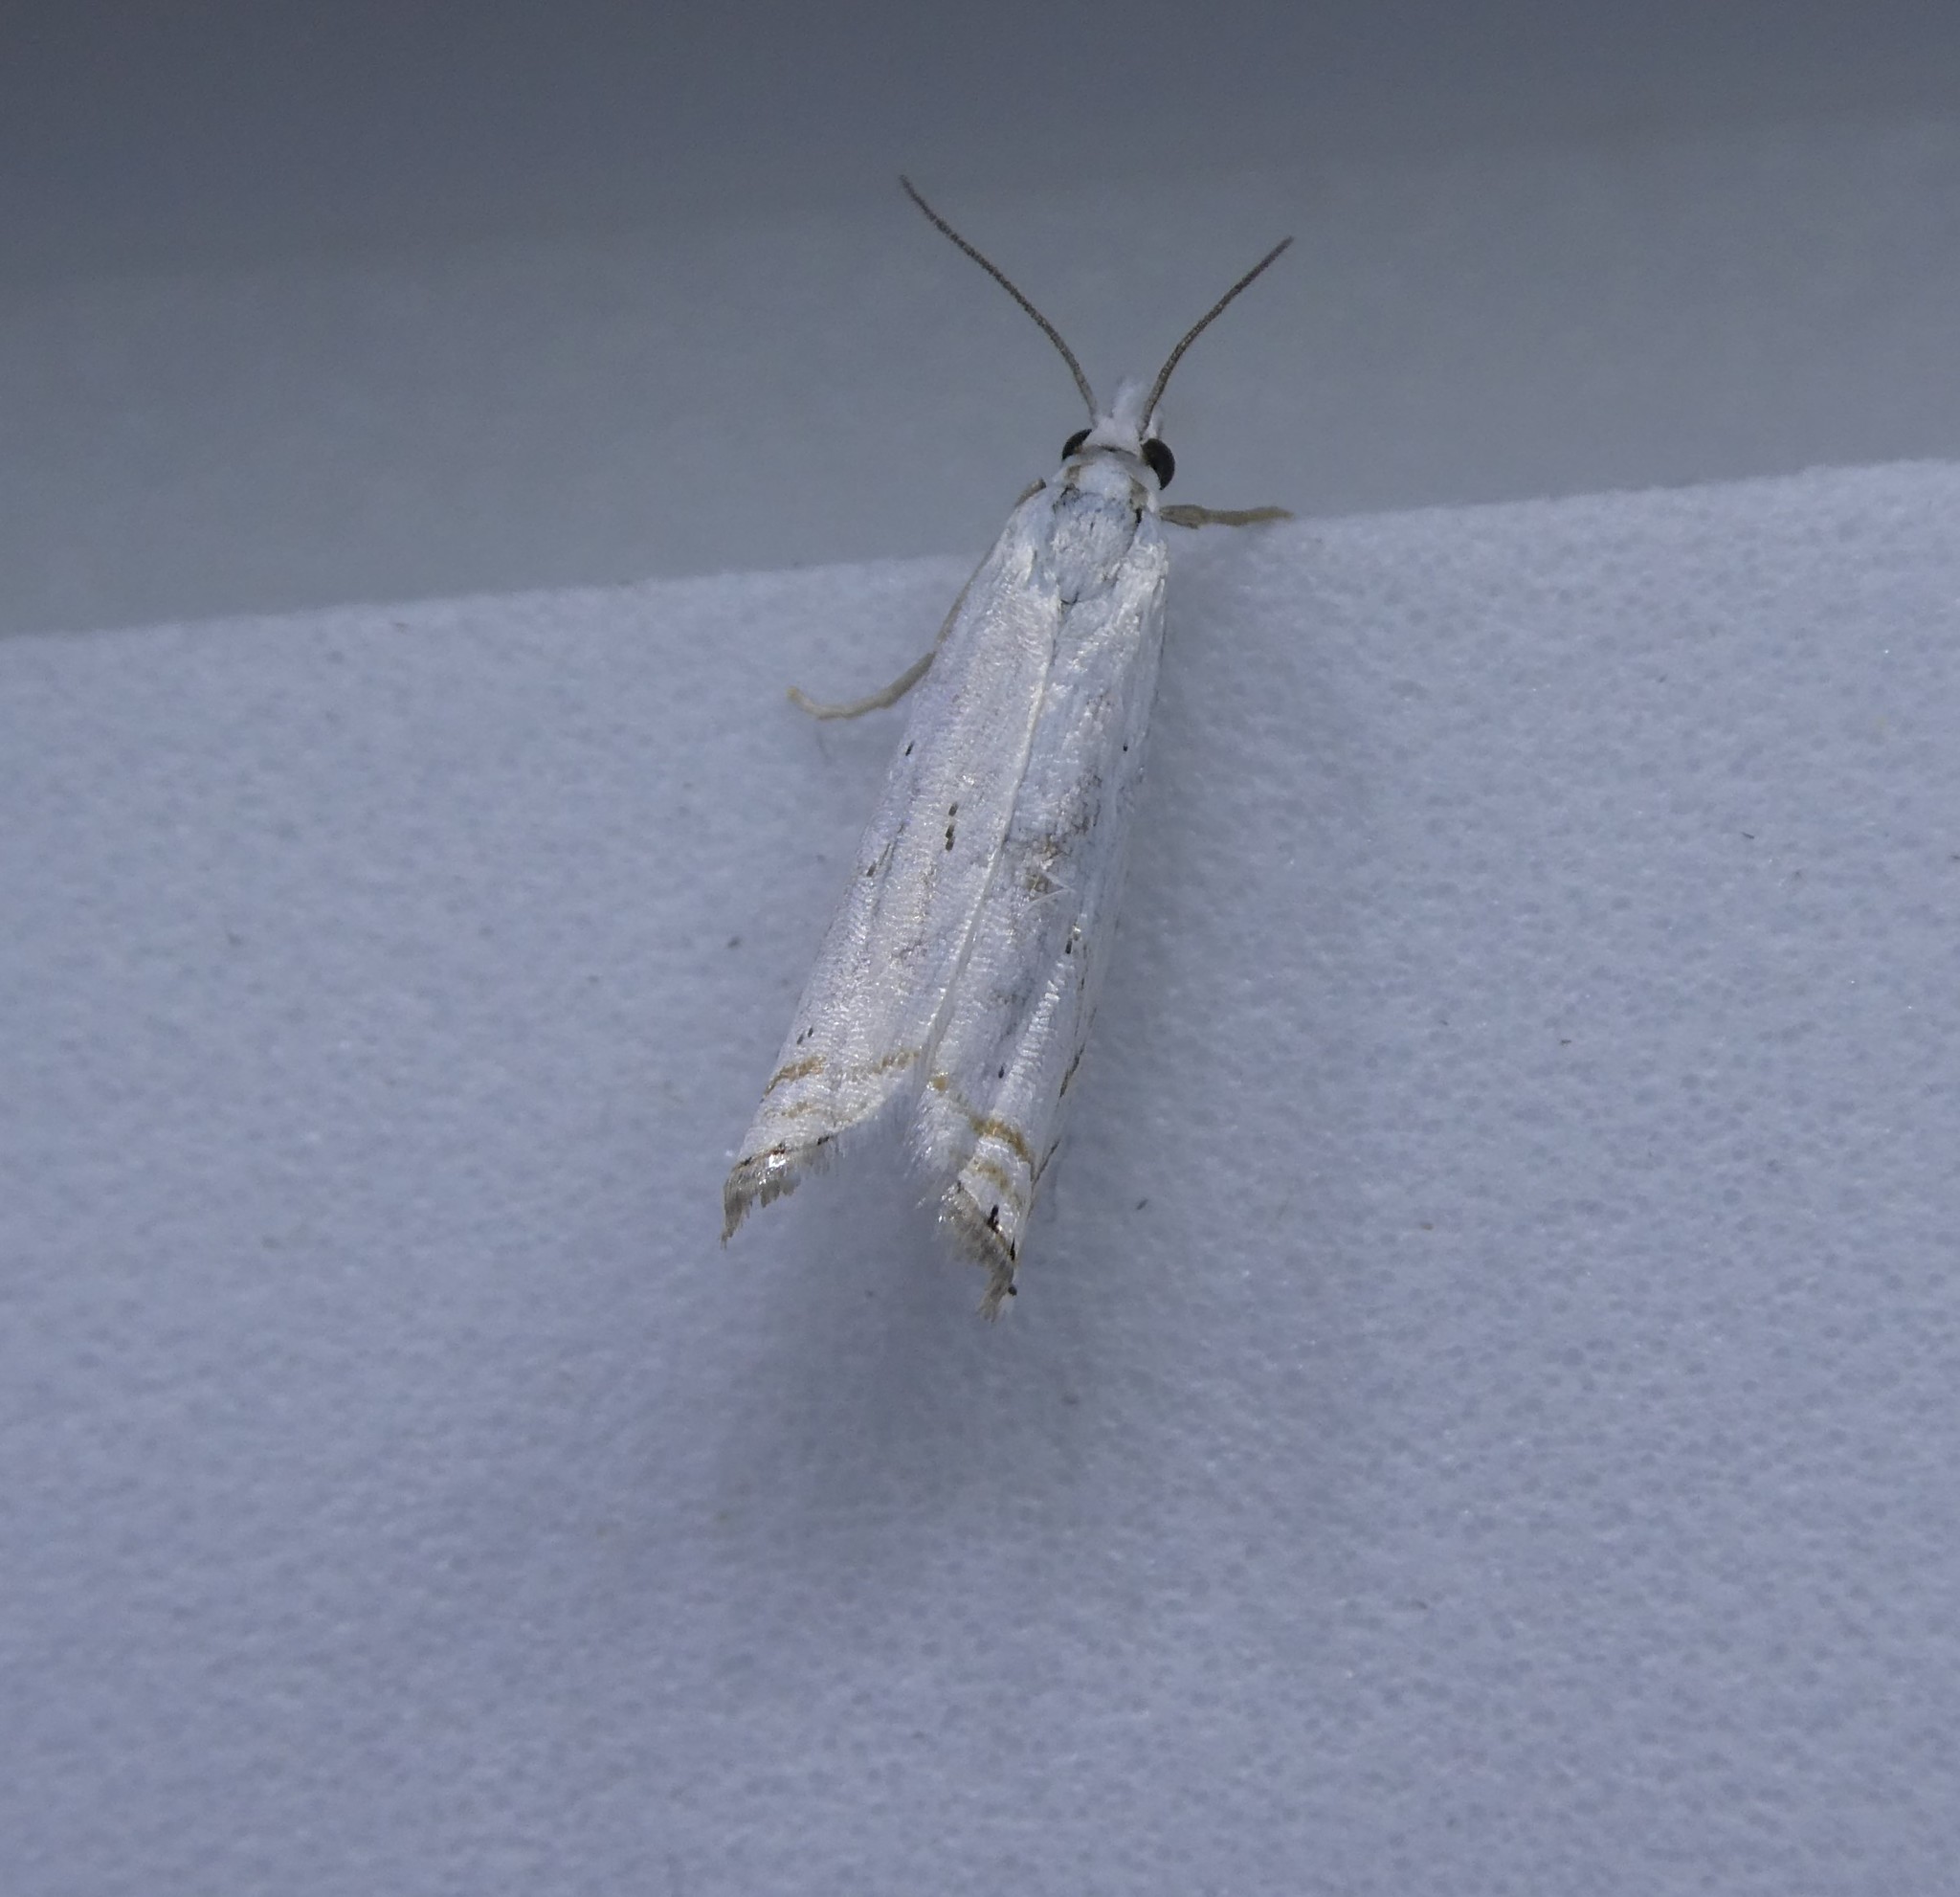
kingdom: Animalia
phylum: Arthropoda
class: Insecta
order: Lepidoptera
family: Crambidae
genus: Crambus
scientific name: Crambus albellus
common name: Small white grass-veneer
